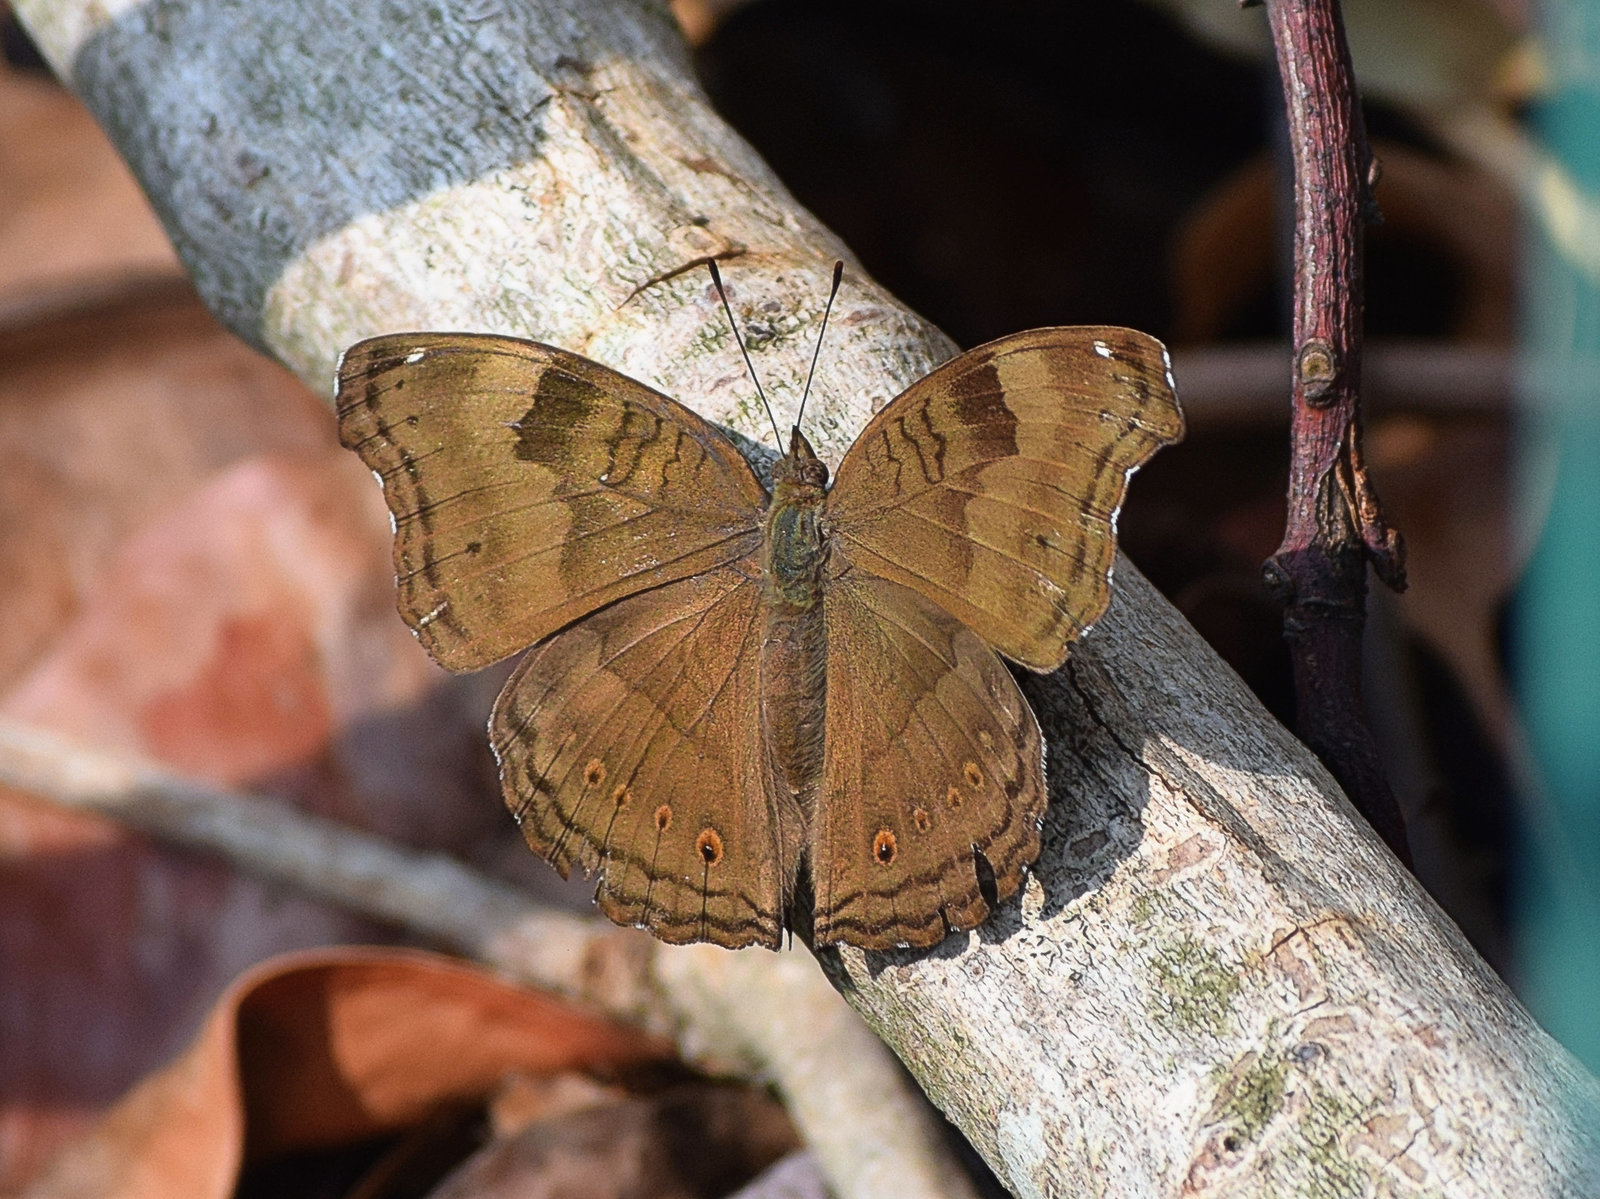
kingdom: Animalia
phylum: Arthropoda
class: Insecta
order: Lepidoptera
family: Nymphalidae
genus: Junonia
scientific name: Junonia iphita
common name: Chocolate pansy
